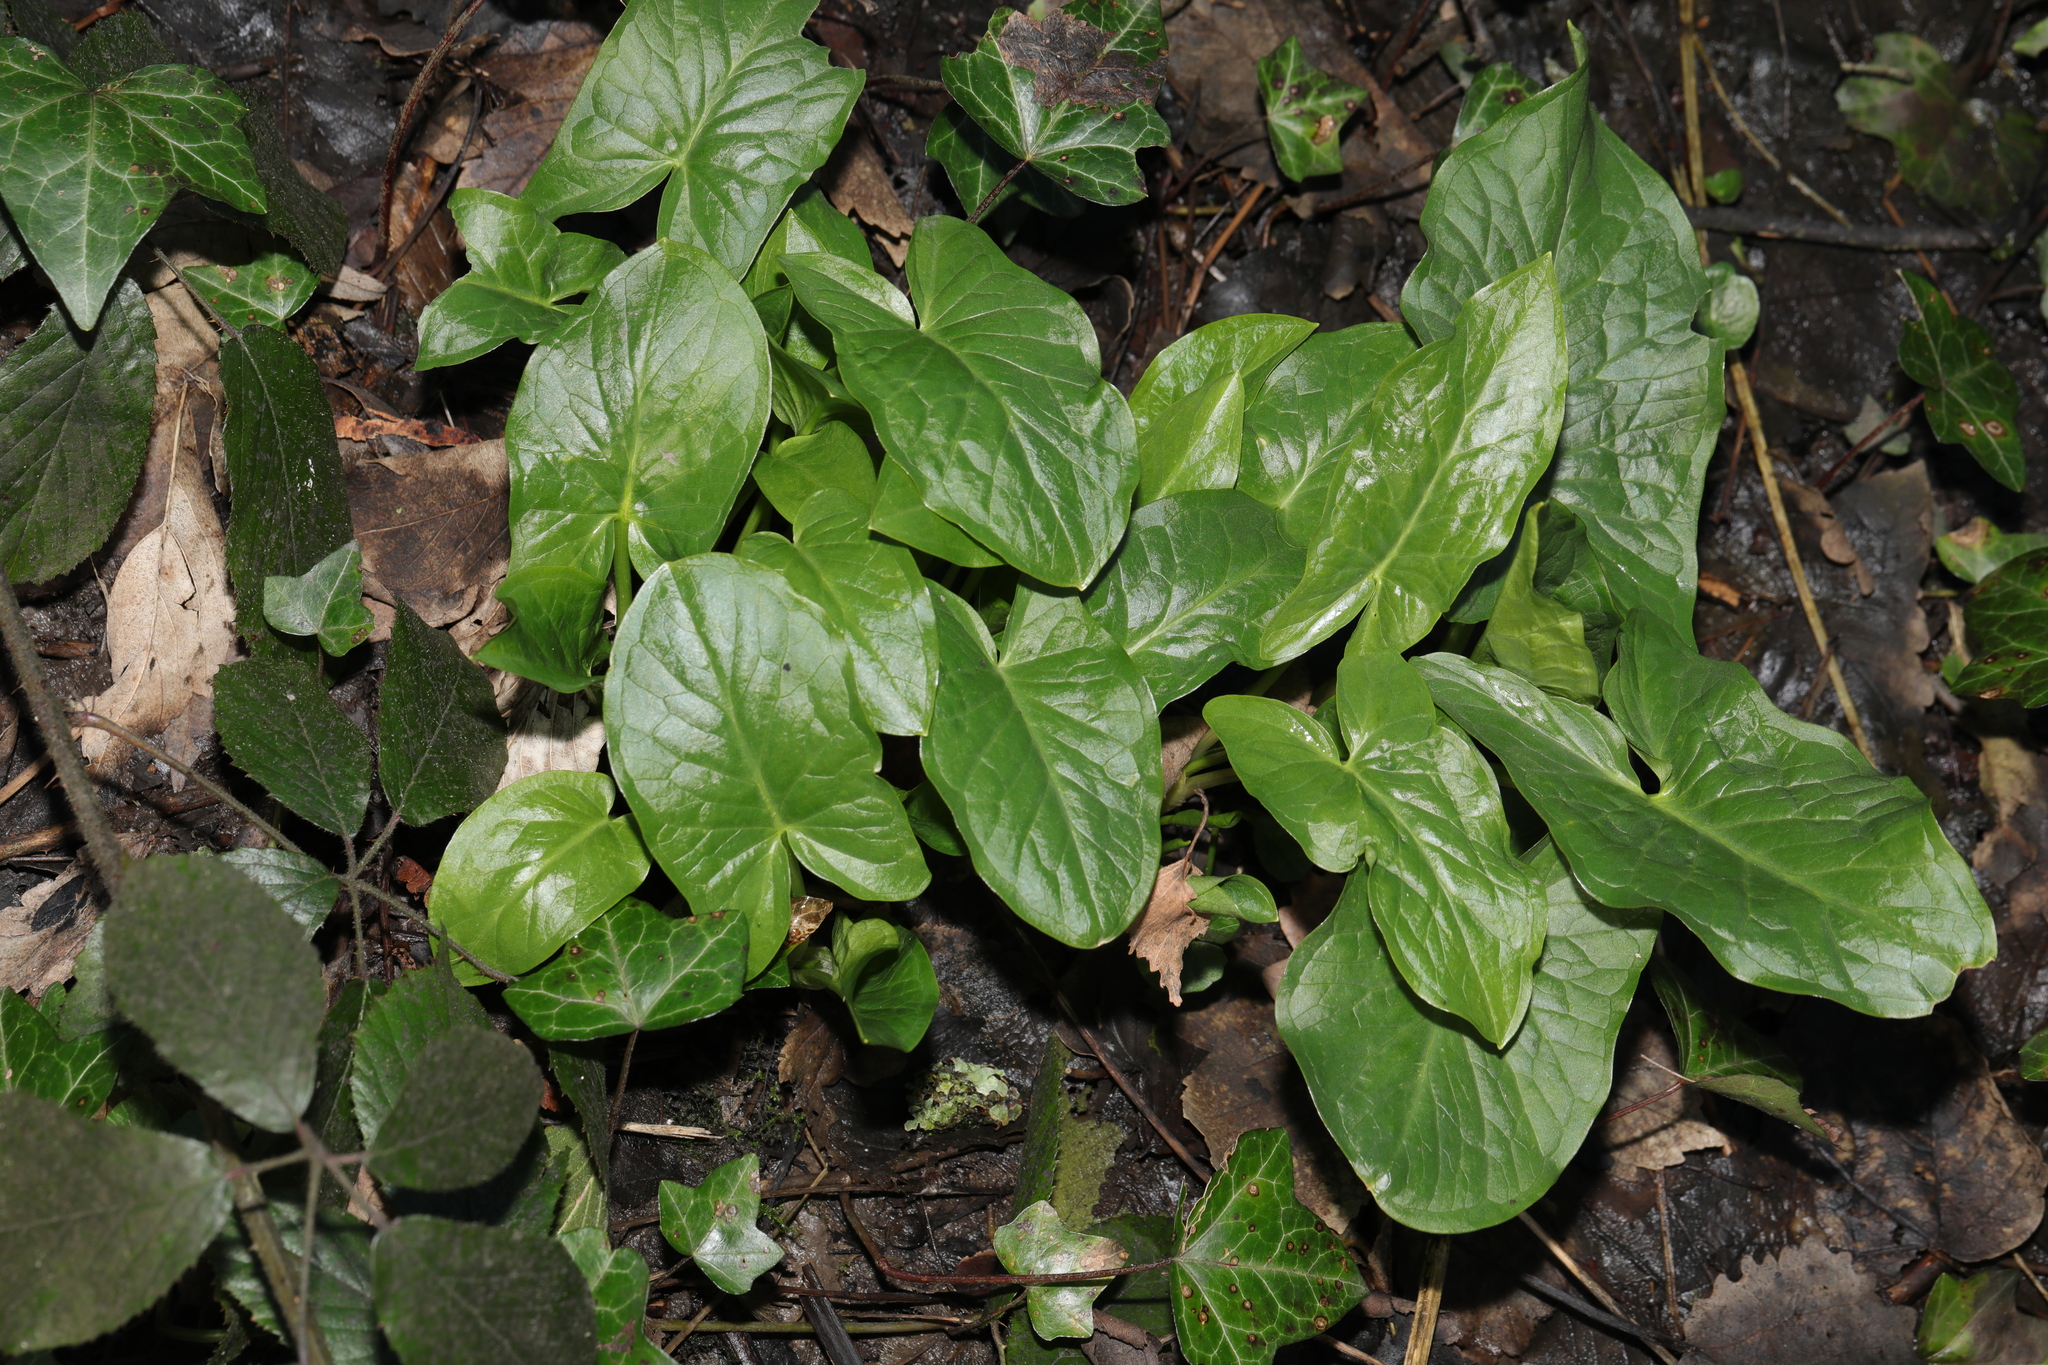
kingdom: Plantae
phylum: Tracheophyta
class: Liliopsida
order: Alismatales
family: Araceae
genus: Arum
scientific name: Arum maculatum
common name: Lords-and-ladies
